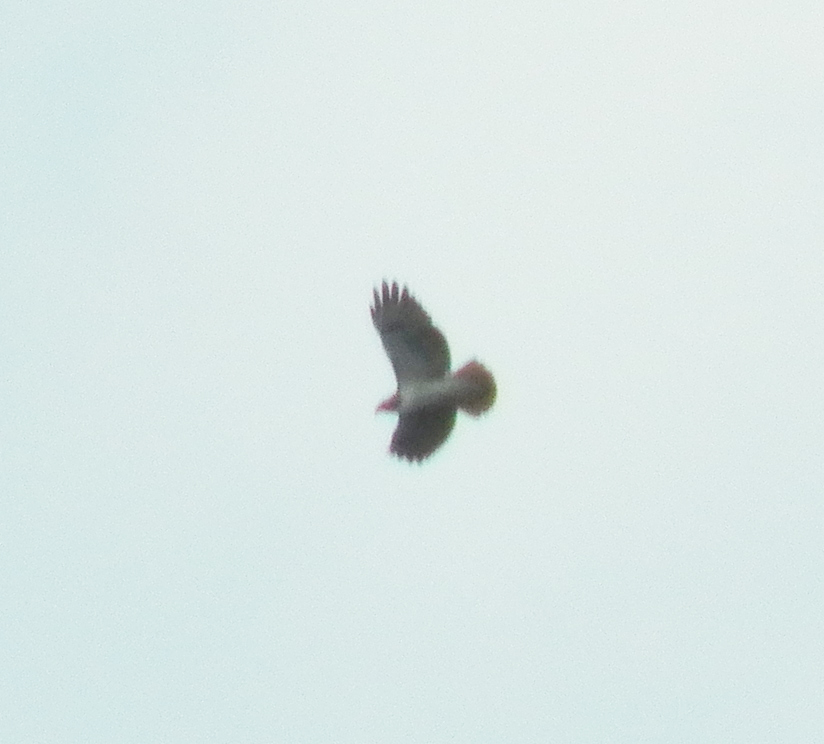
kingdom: Animalia
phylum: Chordata
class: Aves
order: Accipitriformes
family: Accipitridae
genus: Buteo
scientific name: Buteo jamaicensis
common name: Red-tailed hawk
